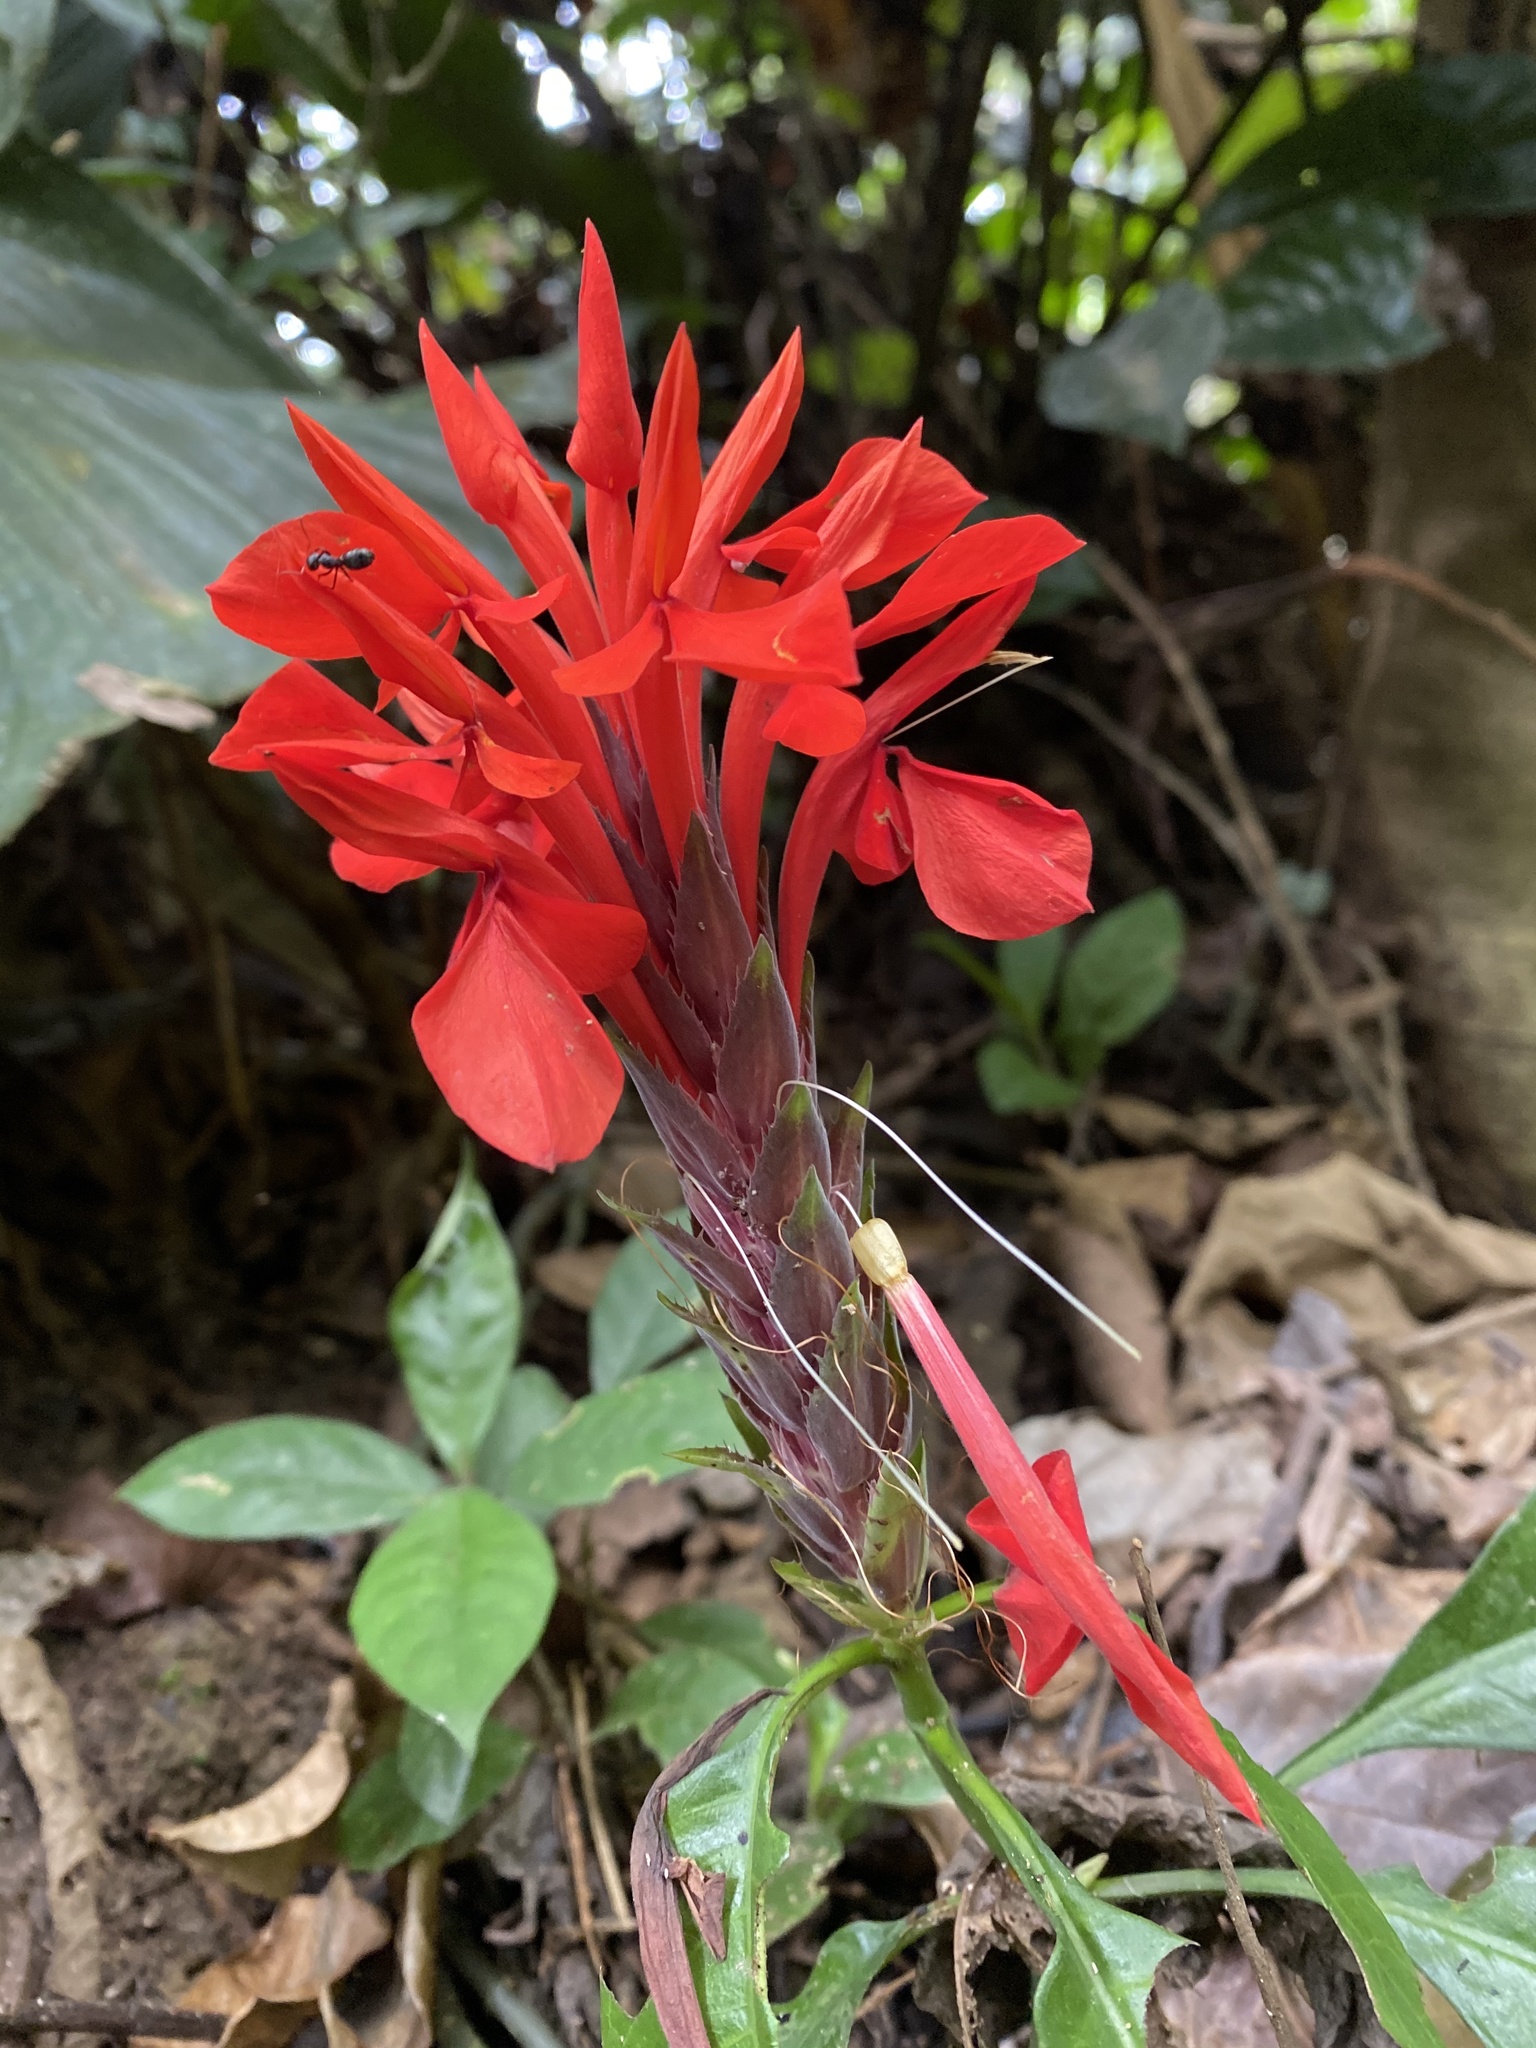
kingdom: Plantae
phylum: Tracheophyta
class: Magnoliopsida
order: Lamiales
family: Acanthaceae
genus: Aphelandra
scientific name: Aphelandra aurantiaca
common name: Fiery spike
